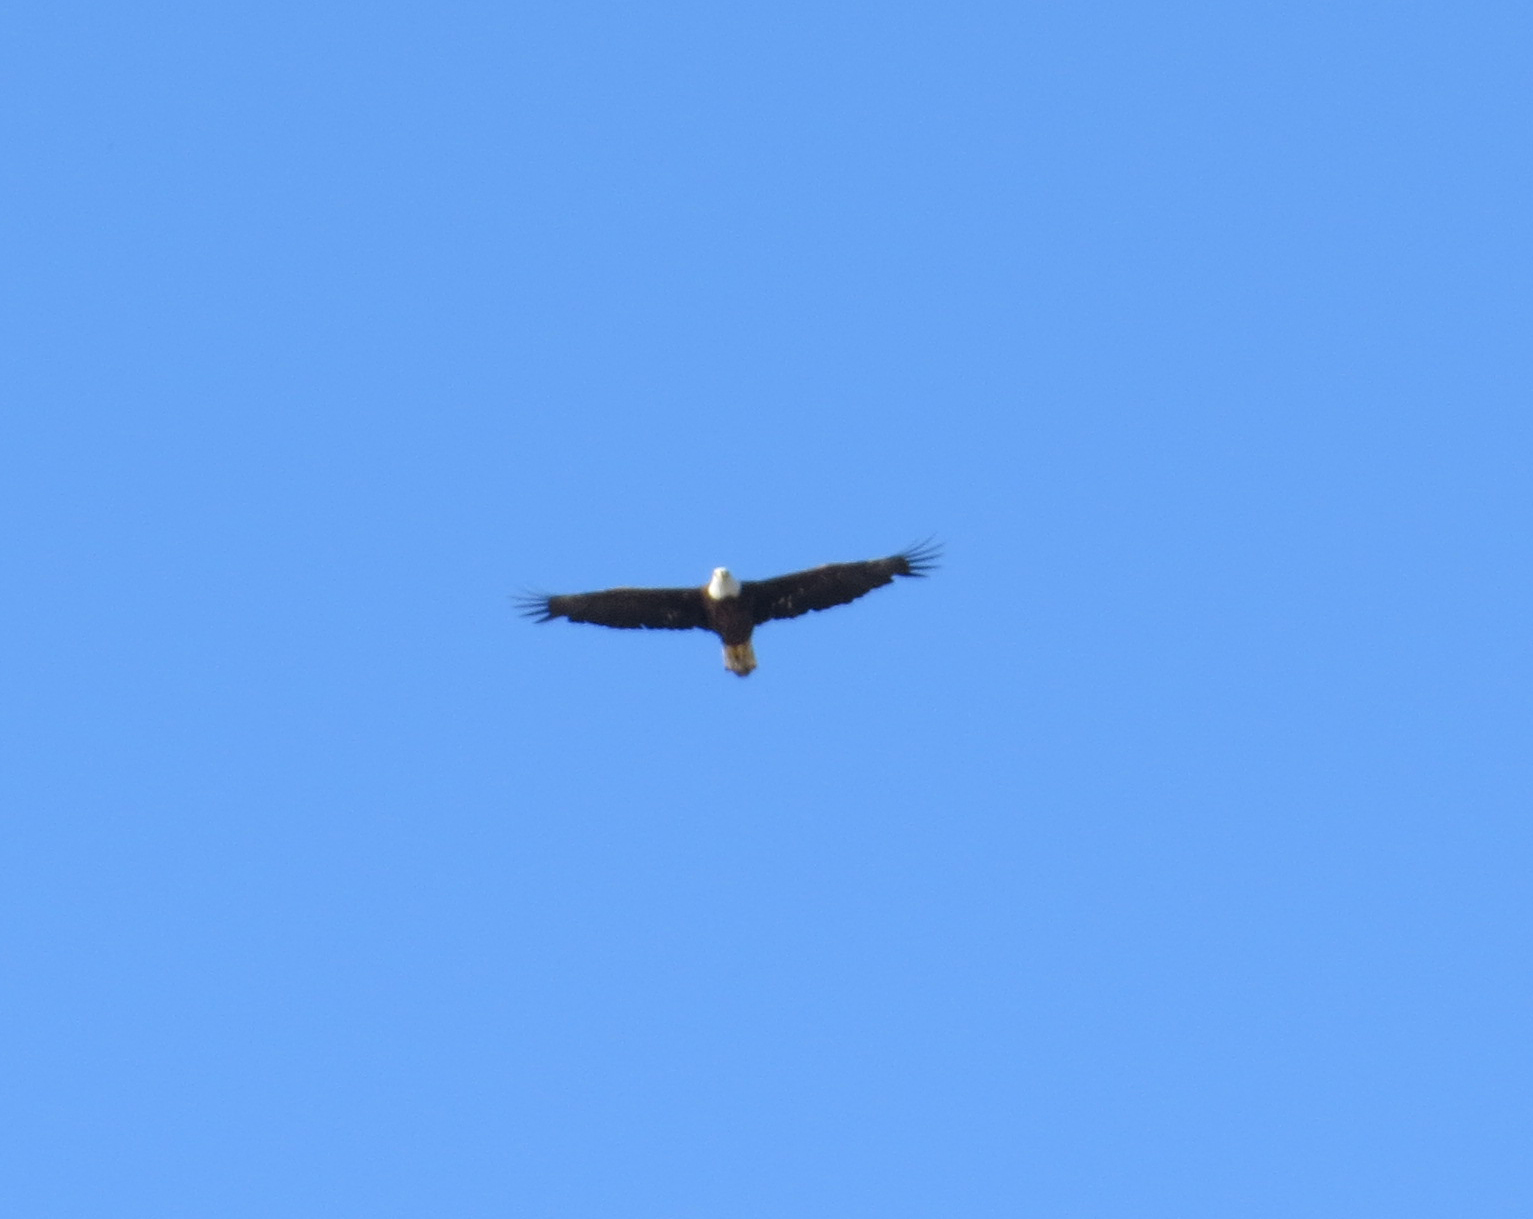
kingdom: Animalia
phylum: Chordata
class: Aves
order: Accipitriformes
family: Accipitridae
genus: Haliaeetus
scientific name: Haliaeetus leucocephalus
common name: Bald eagle
